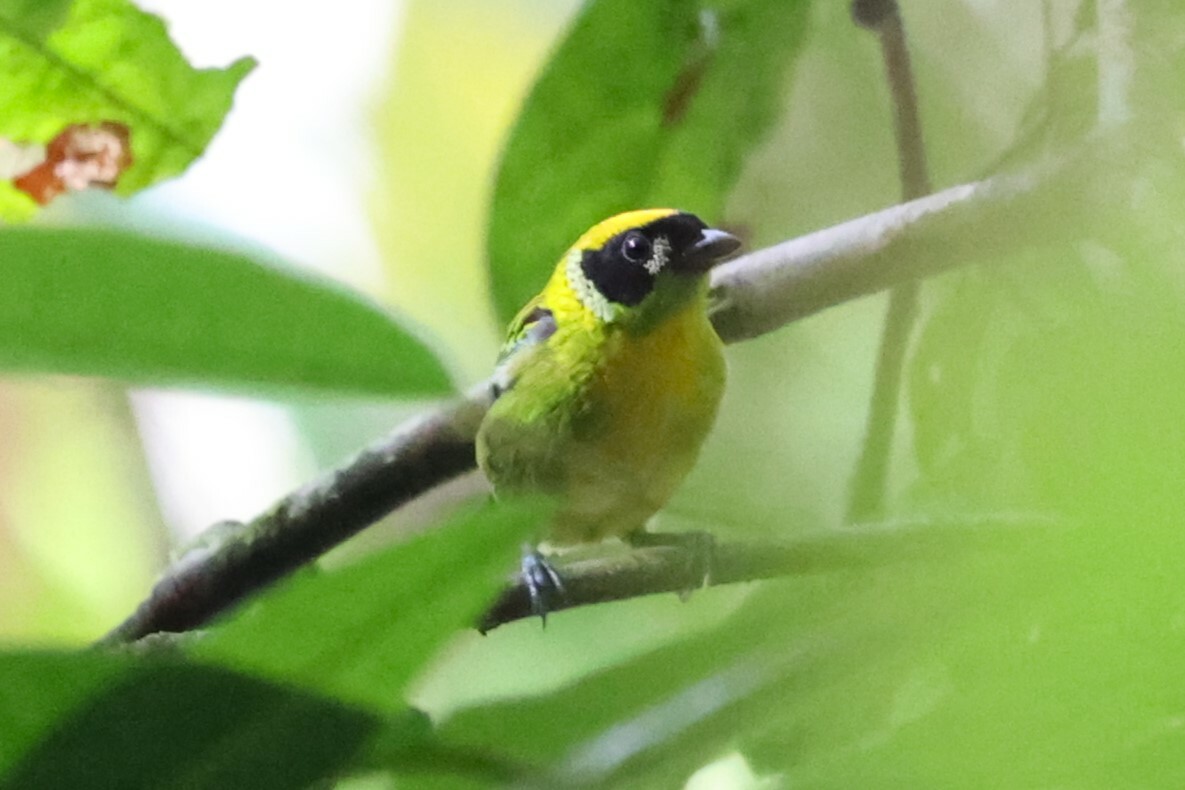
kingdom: Animalia
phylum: Chordata
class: Aves
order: Passeriformes
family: Thraupidae
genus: Tangara
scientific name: Tangara schrankii
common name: Green-and-gold tanager
